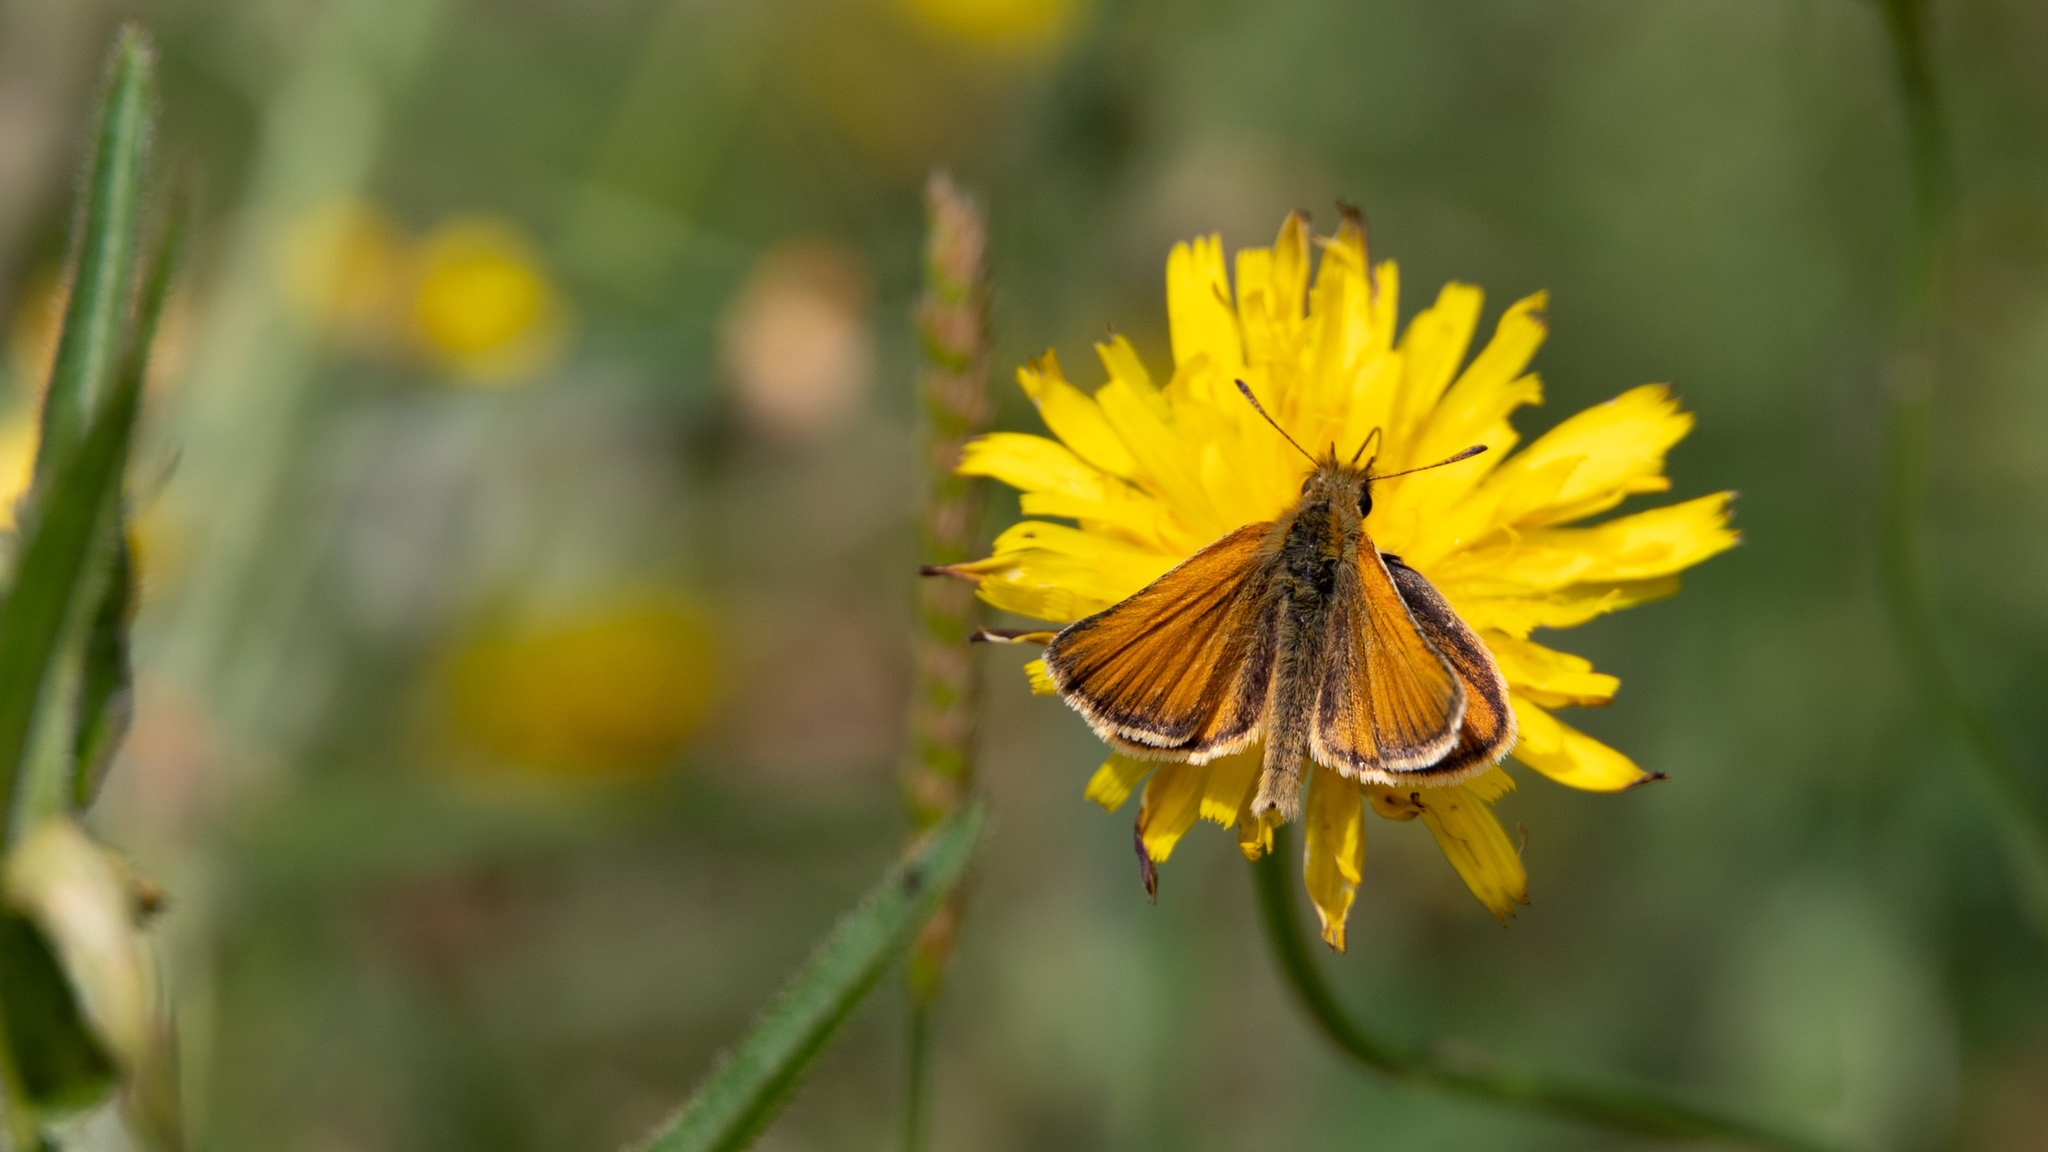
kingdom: Animalia
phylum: Arthropoda
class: Insecta
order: Lepidoptera
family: Hesperiidae
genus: Thymelicus
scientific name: Thymelicus lineola
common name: Essex skipper
